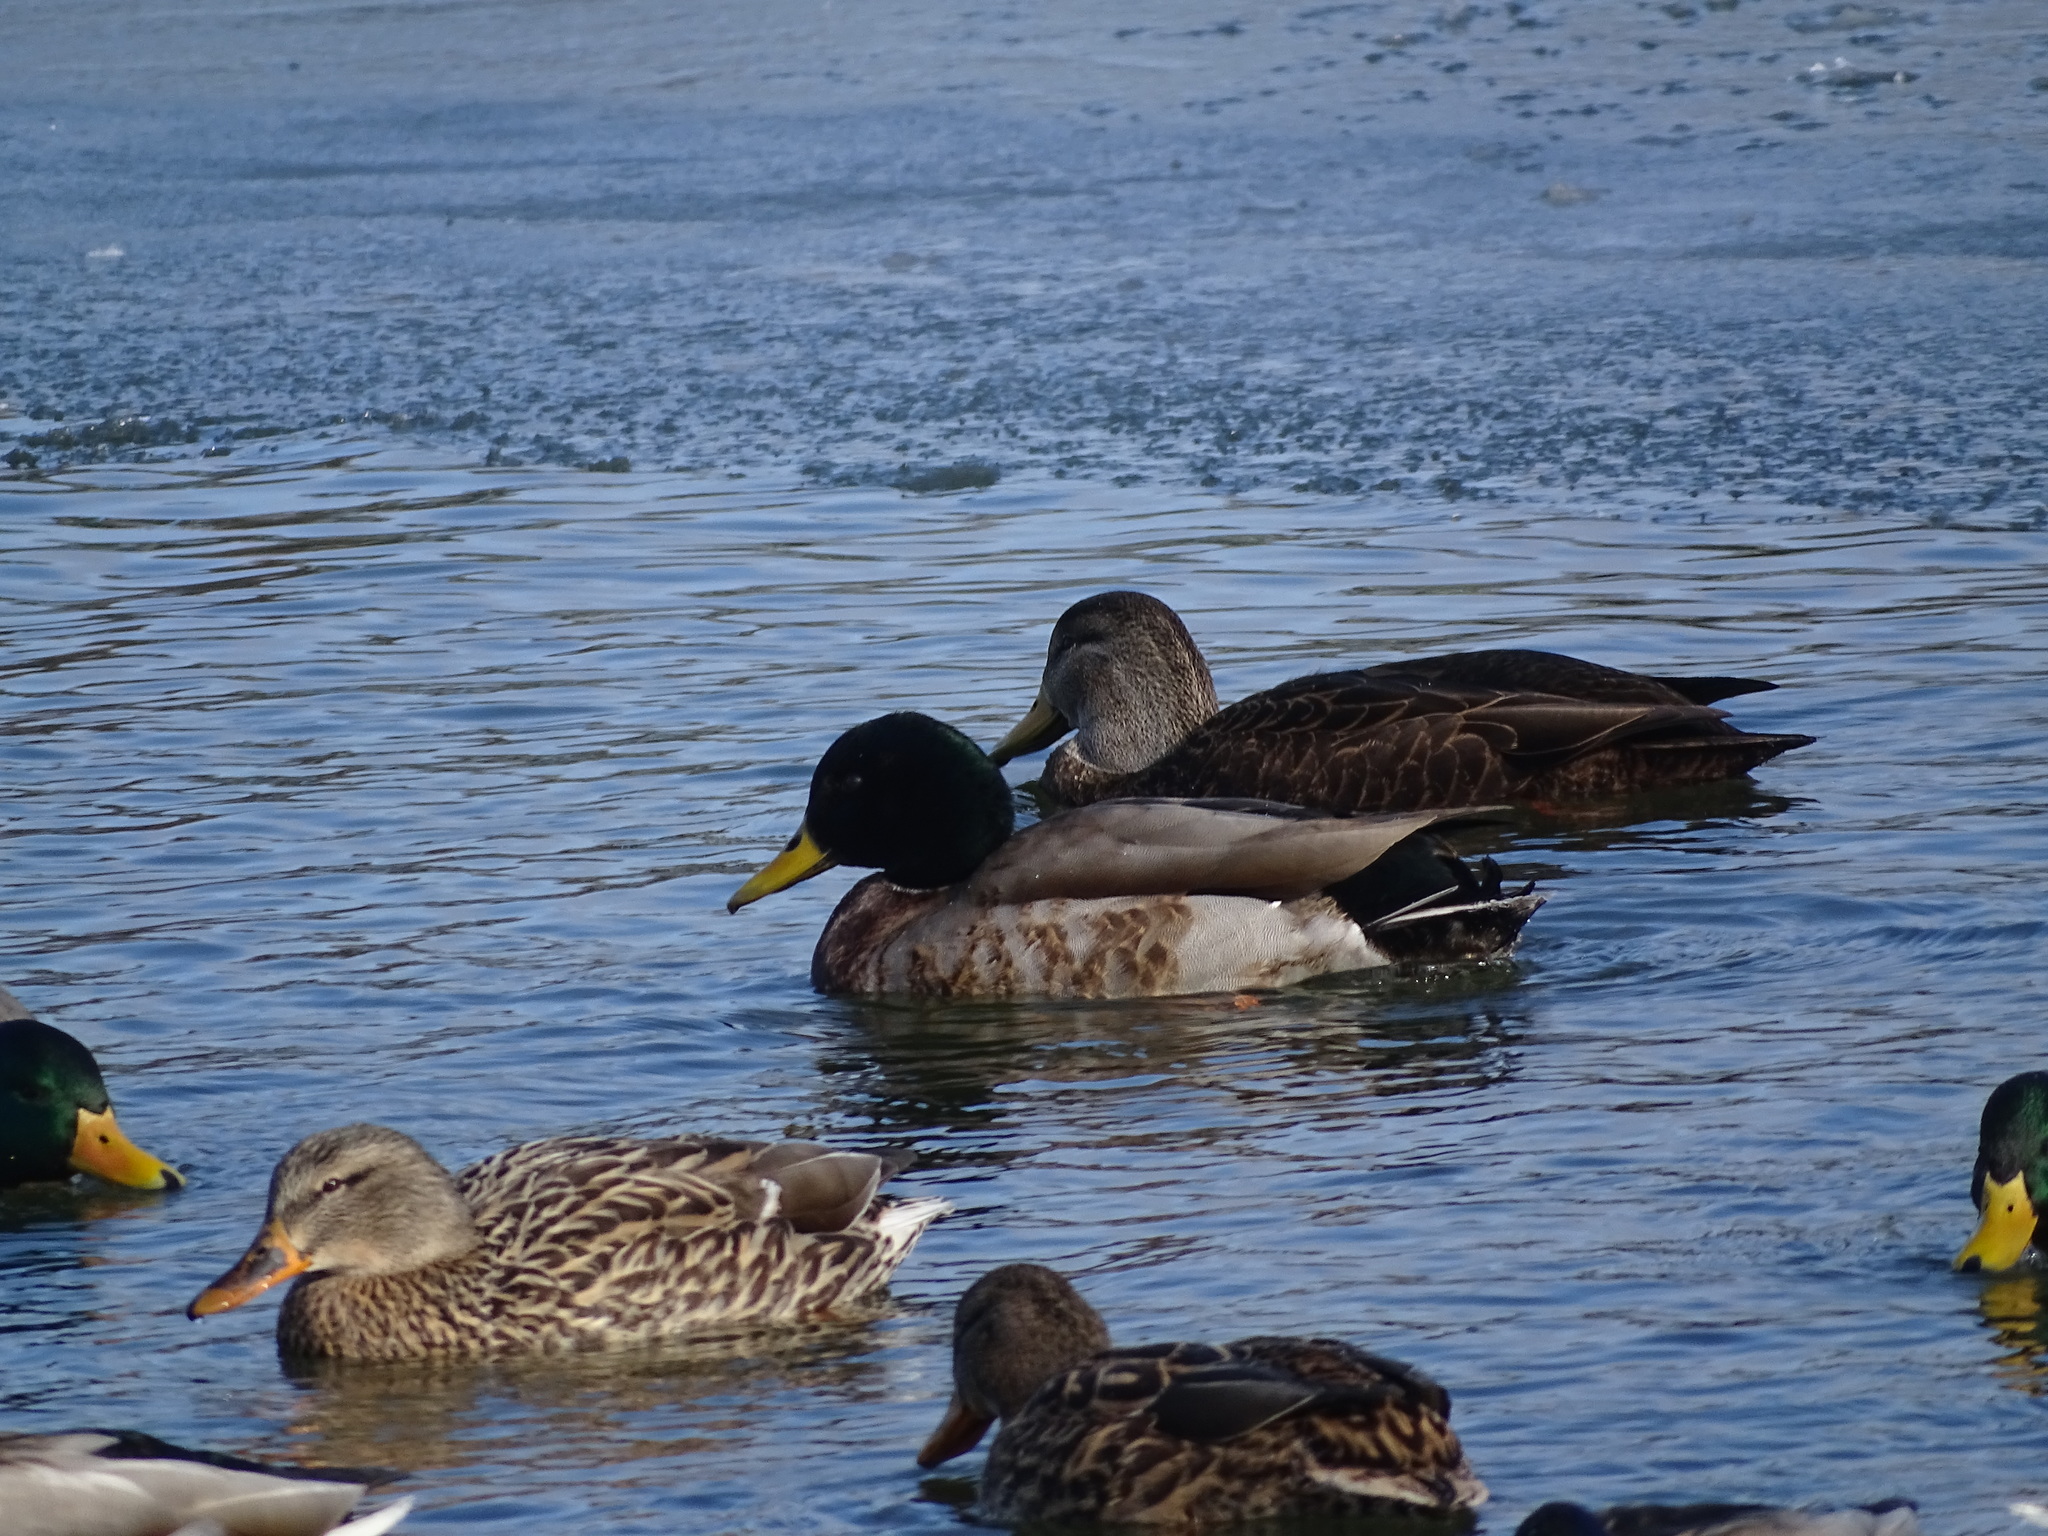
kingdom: Animalia
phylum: Chordata
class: Aves
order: Anseriformes
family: Anatidae
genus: Anas
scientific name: Anas platyrhynchos
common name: Mallard
